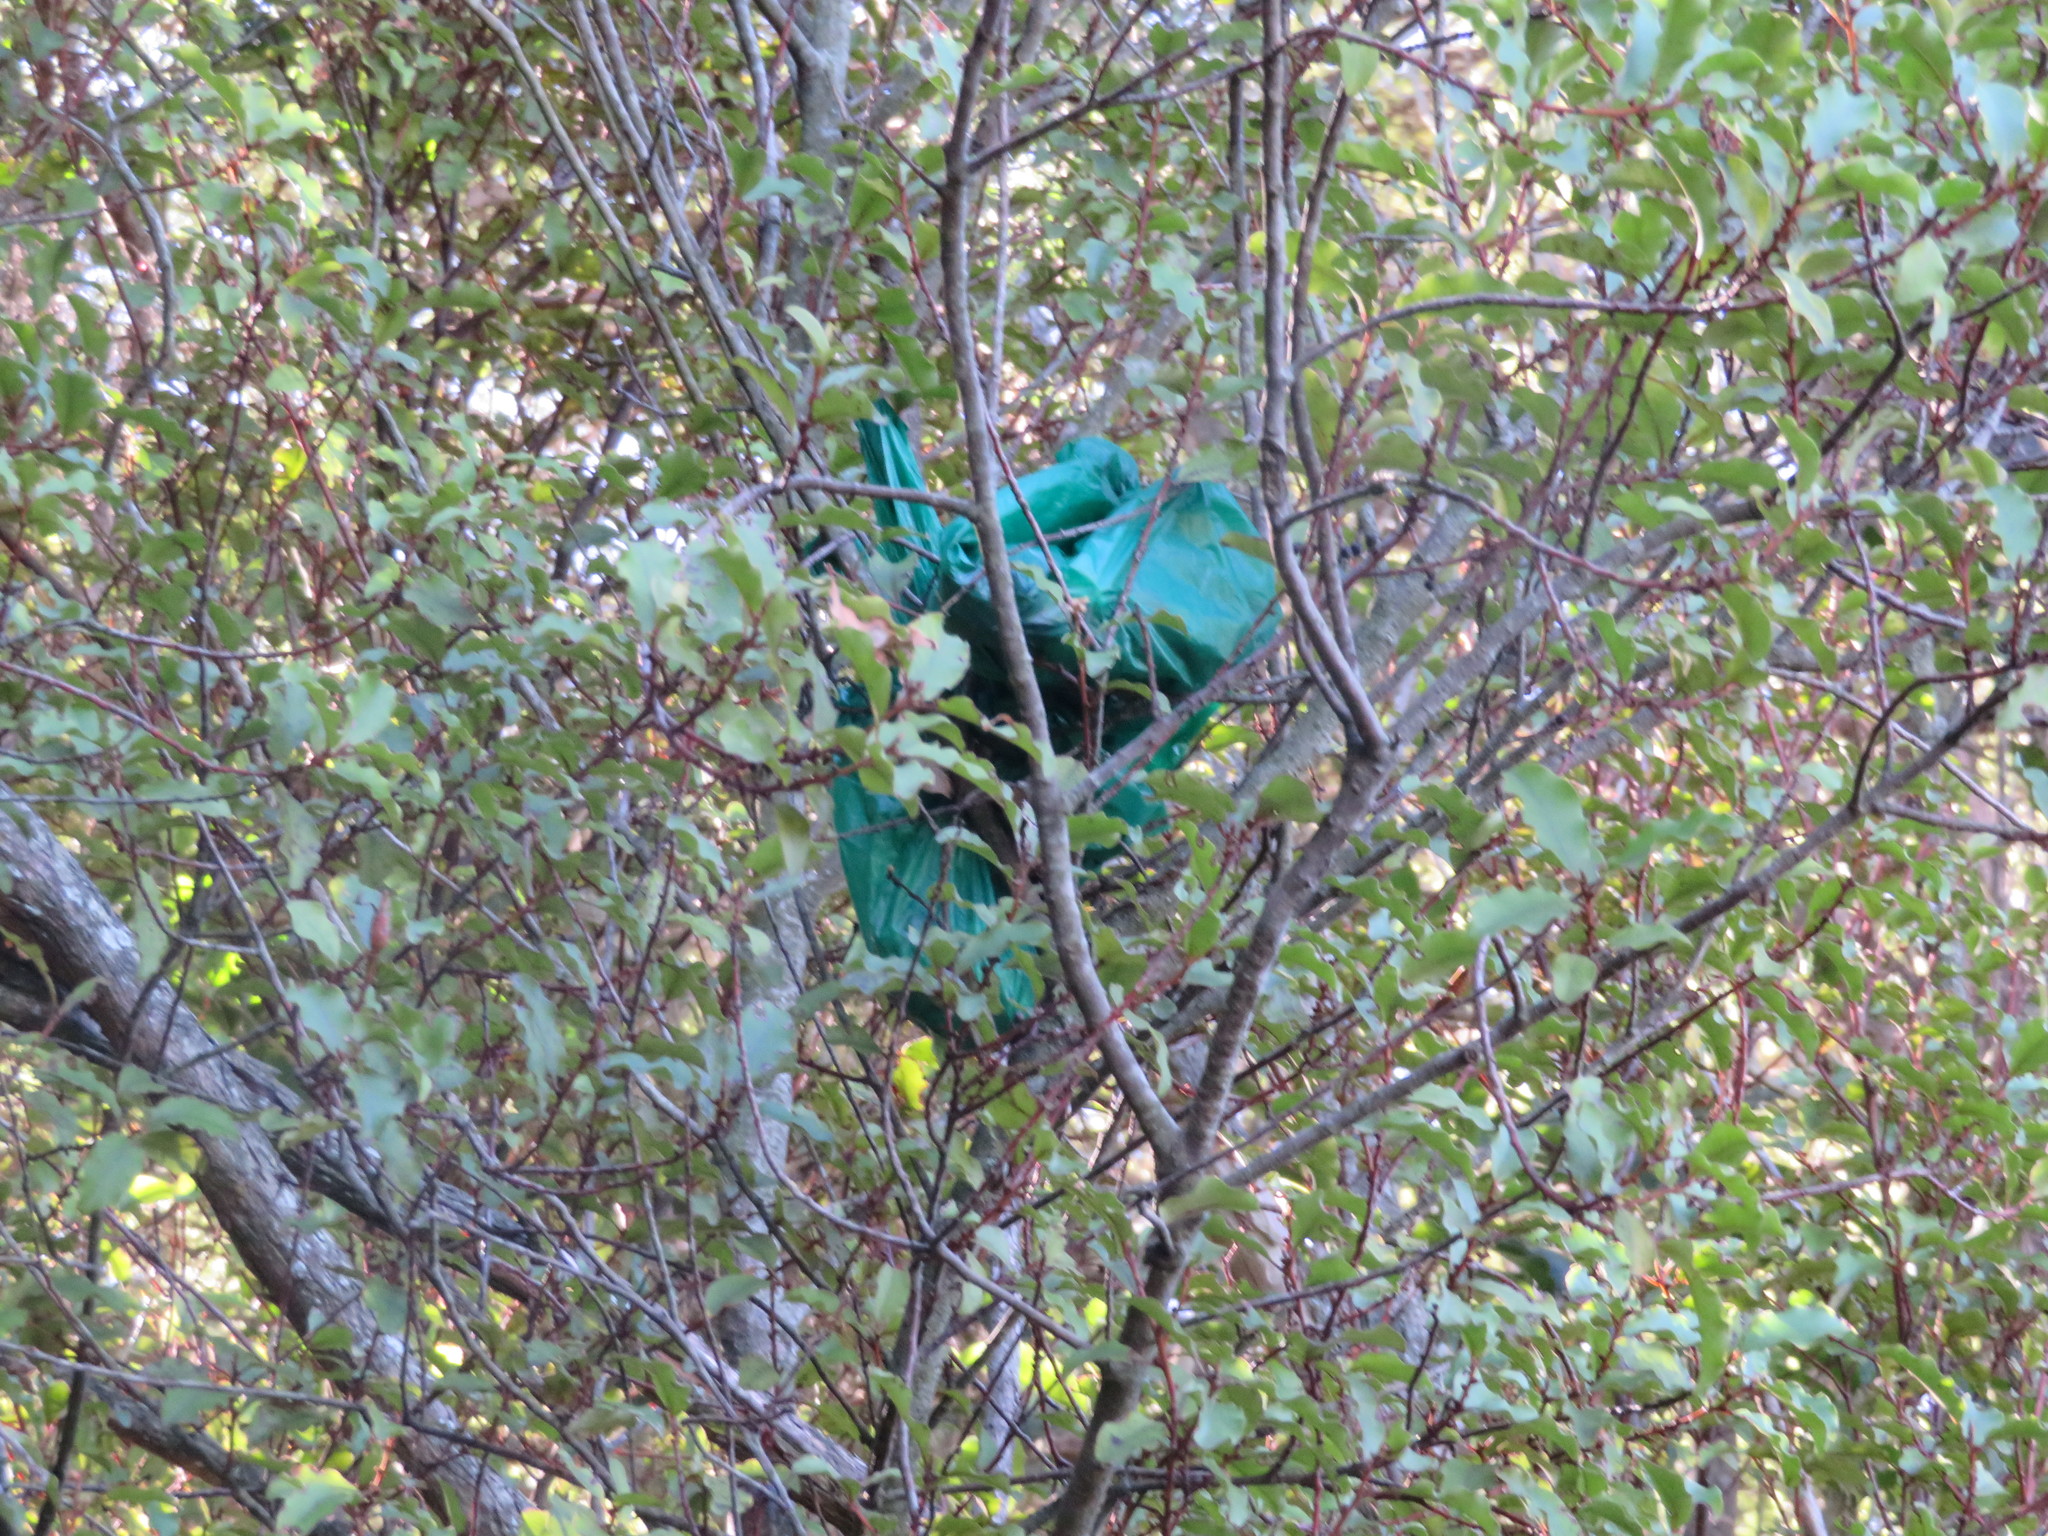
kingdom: Plantae
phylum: Tracheophyta
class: Magnoliopsida
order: Ericales
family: Primulaceae
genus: Myrsine
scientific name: Myrsine australis
